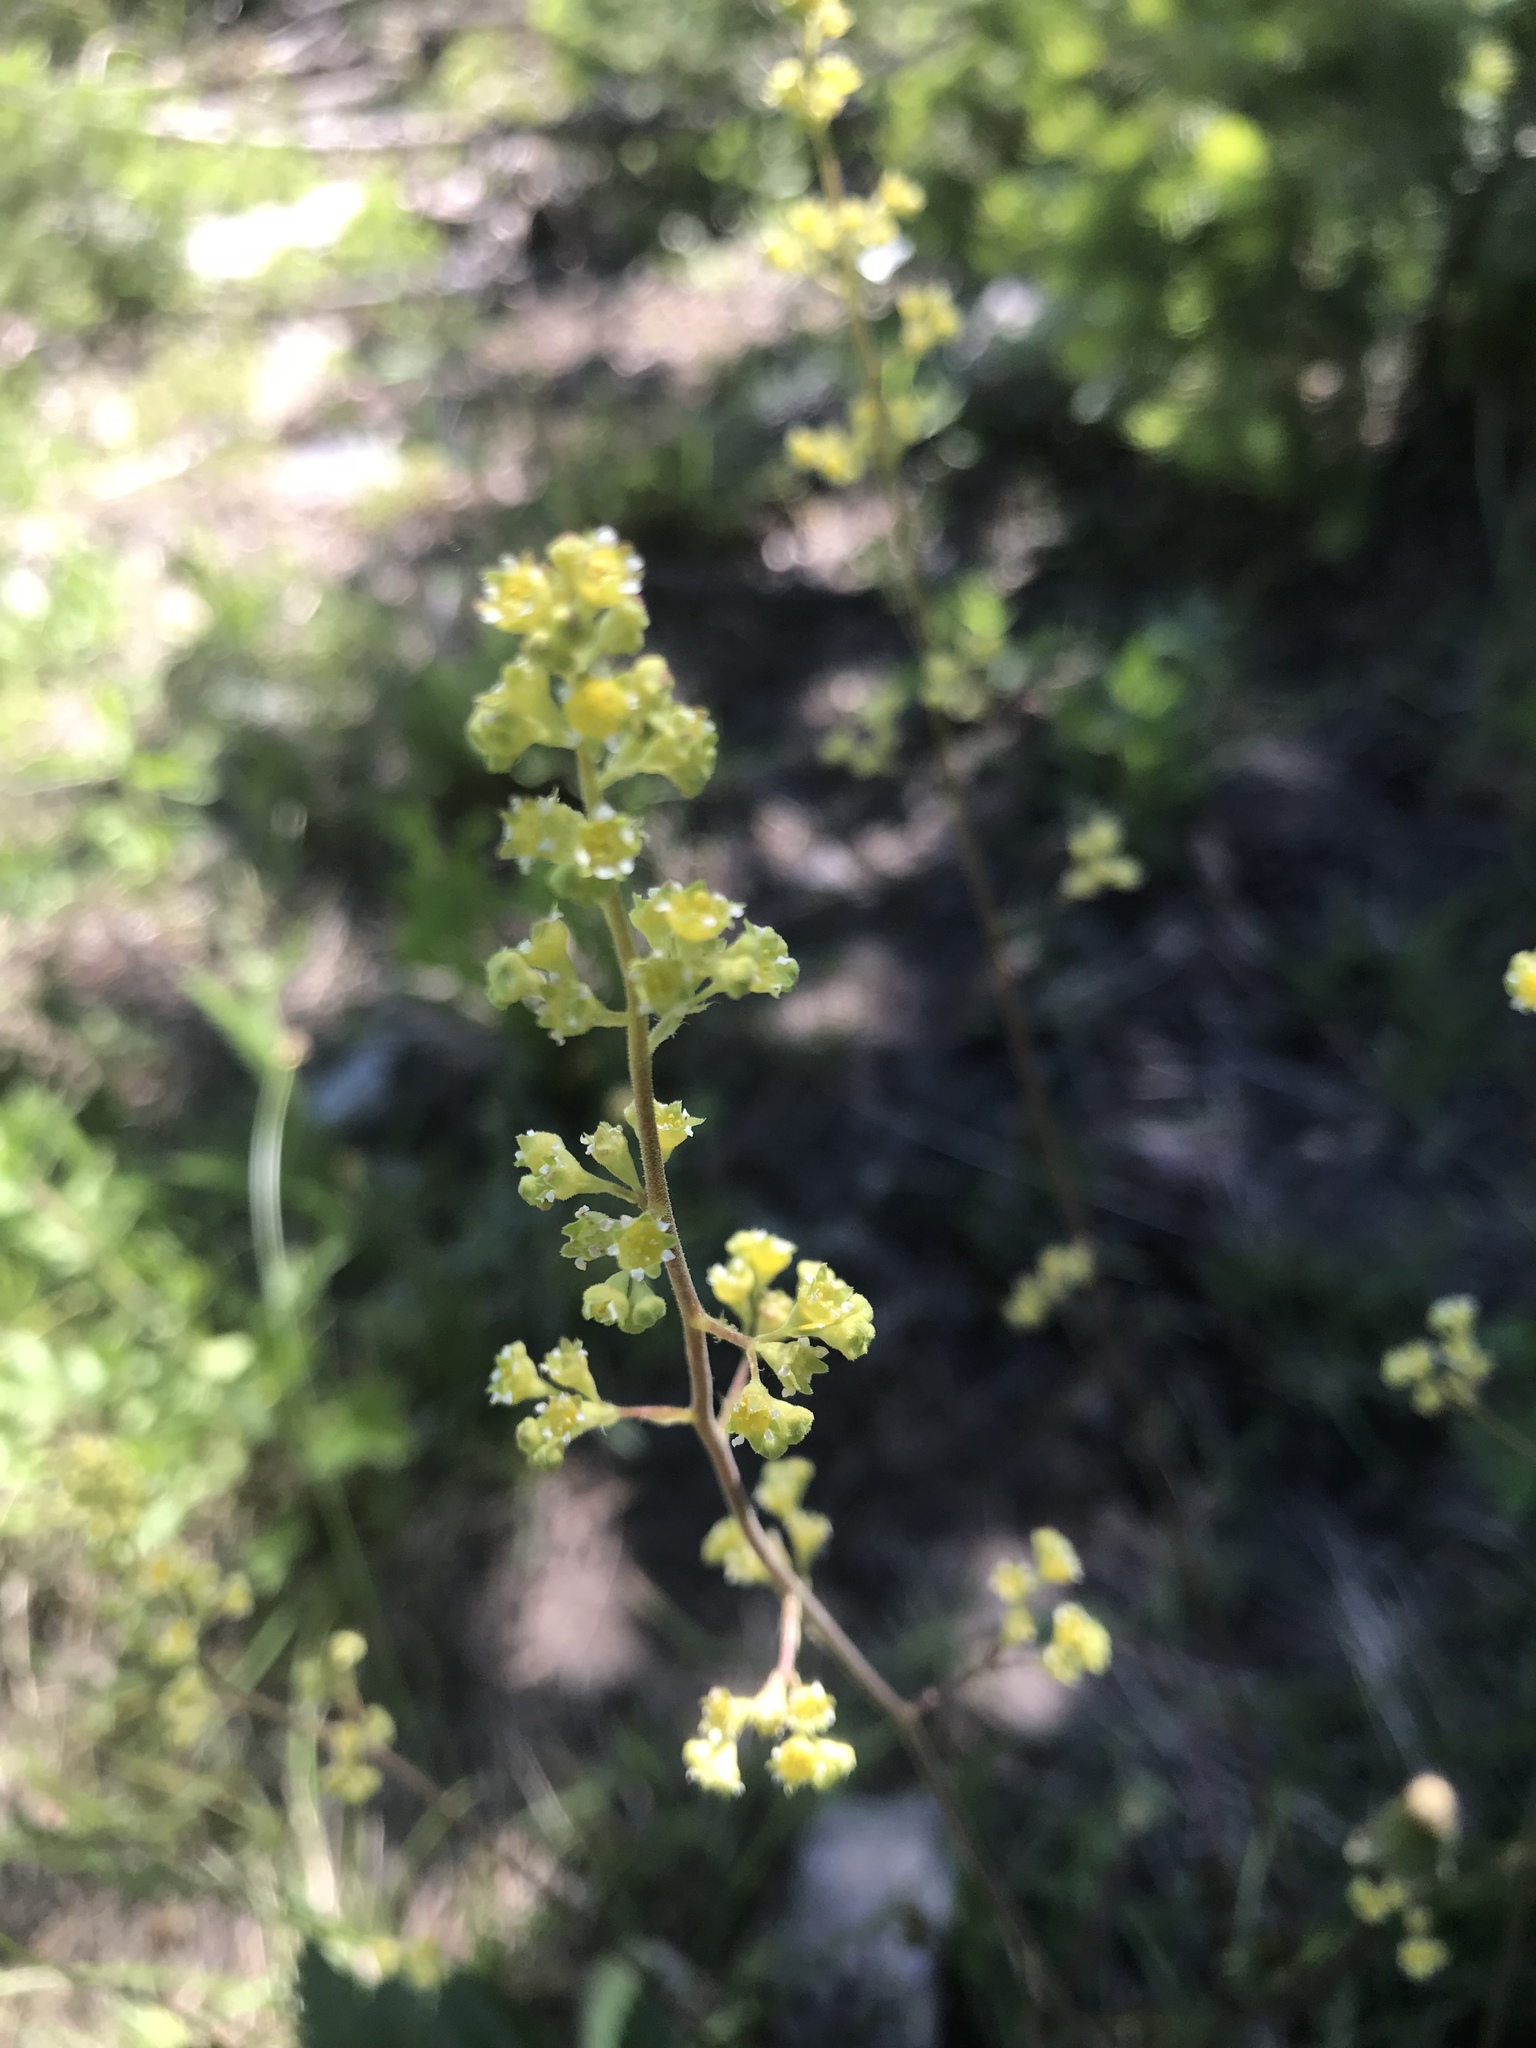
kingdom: Plantae
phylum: Tracheophyta
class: Magnoliopsida
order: Saxifragales
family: Saxifragaceae
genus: Heuchera
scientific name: Heuchera parvifolia
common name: Common alumroot
